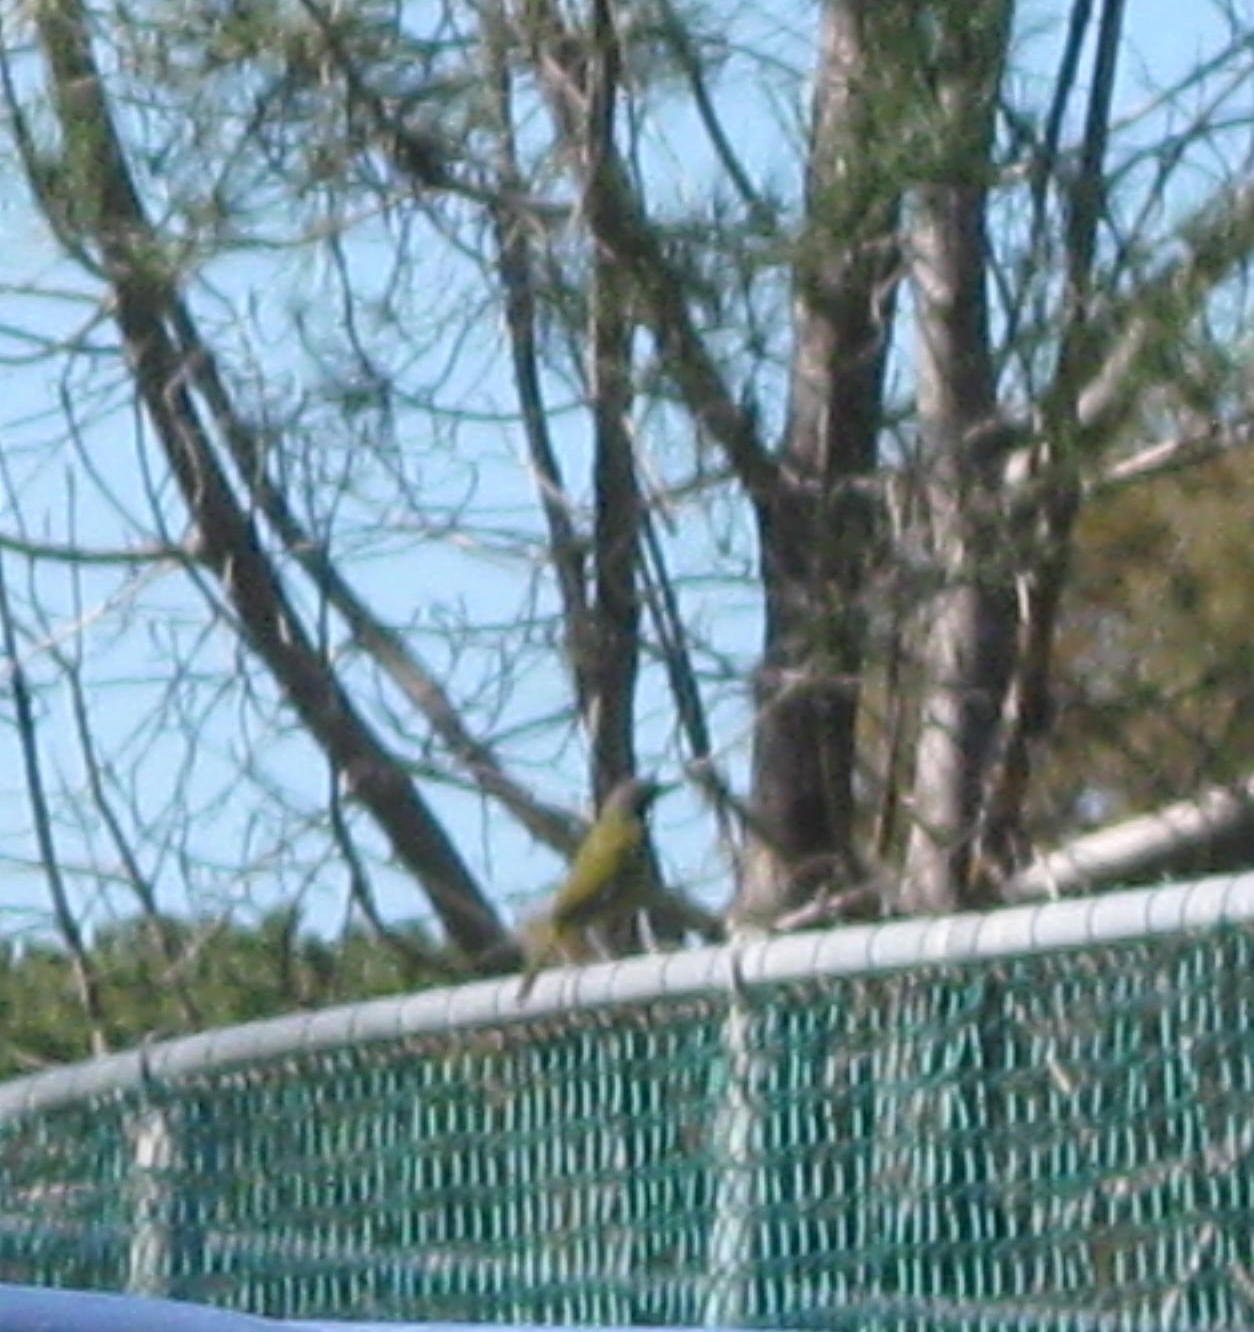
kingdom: Animalia
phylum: Chordata
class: Aves
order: Passeriformes
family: Malaconotidae
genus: Telophorus
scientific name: Telophorus zeylonus
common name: Bokmakierie
